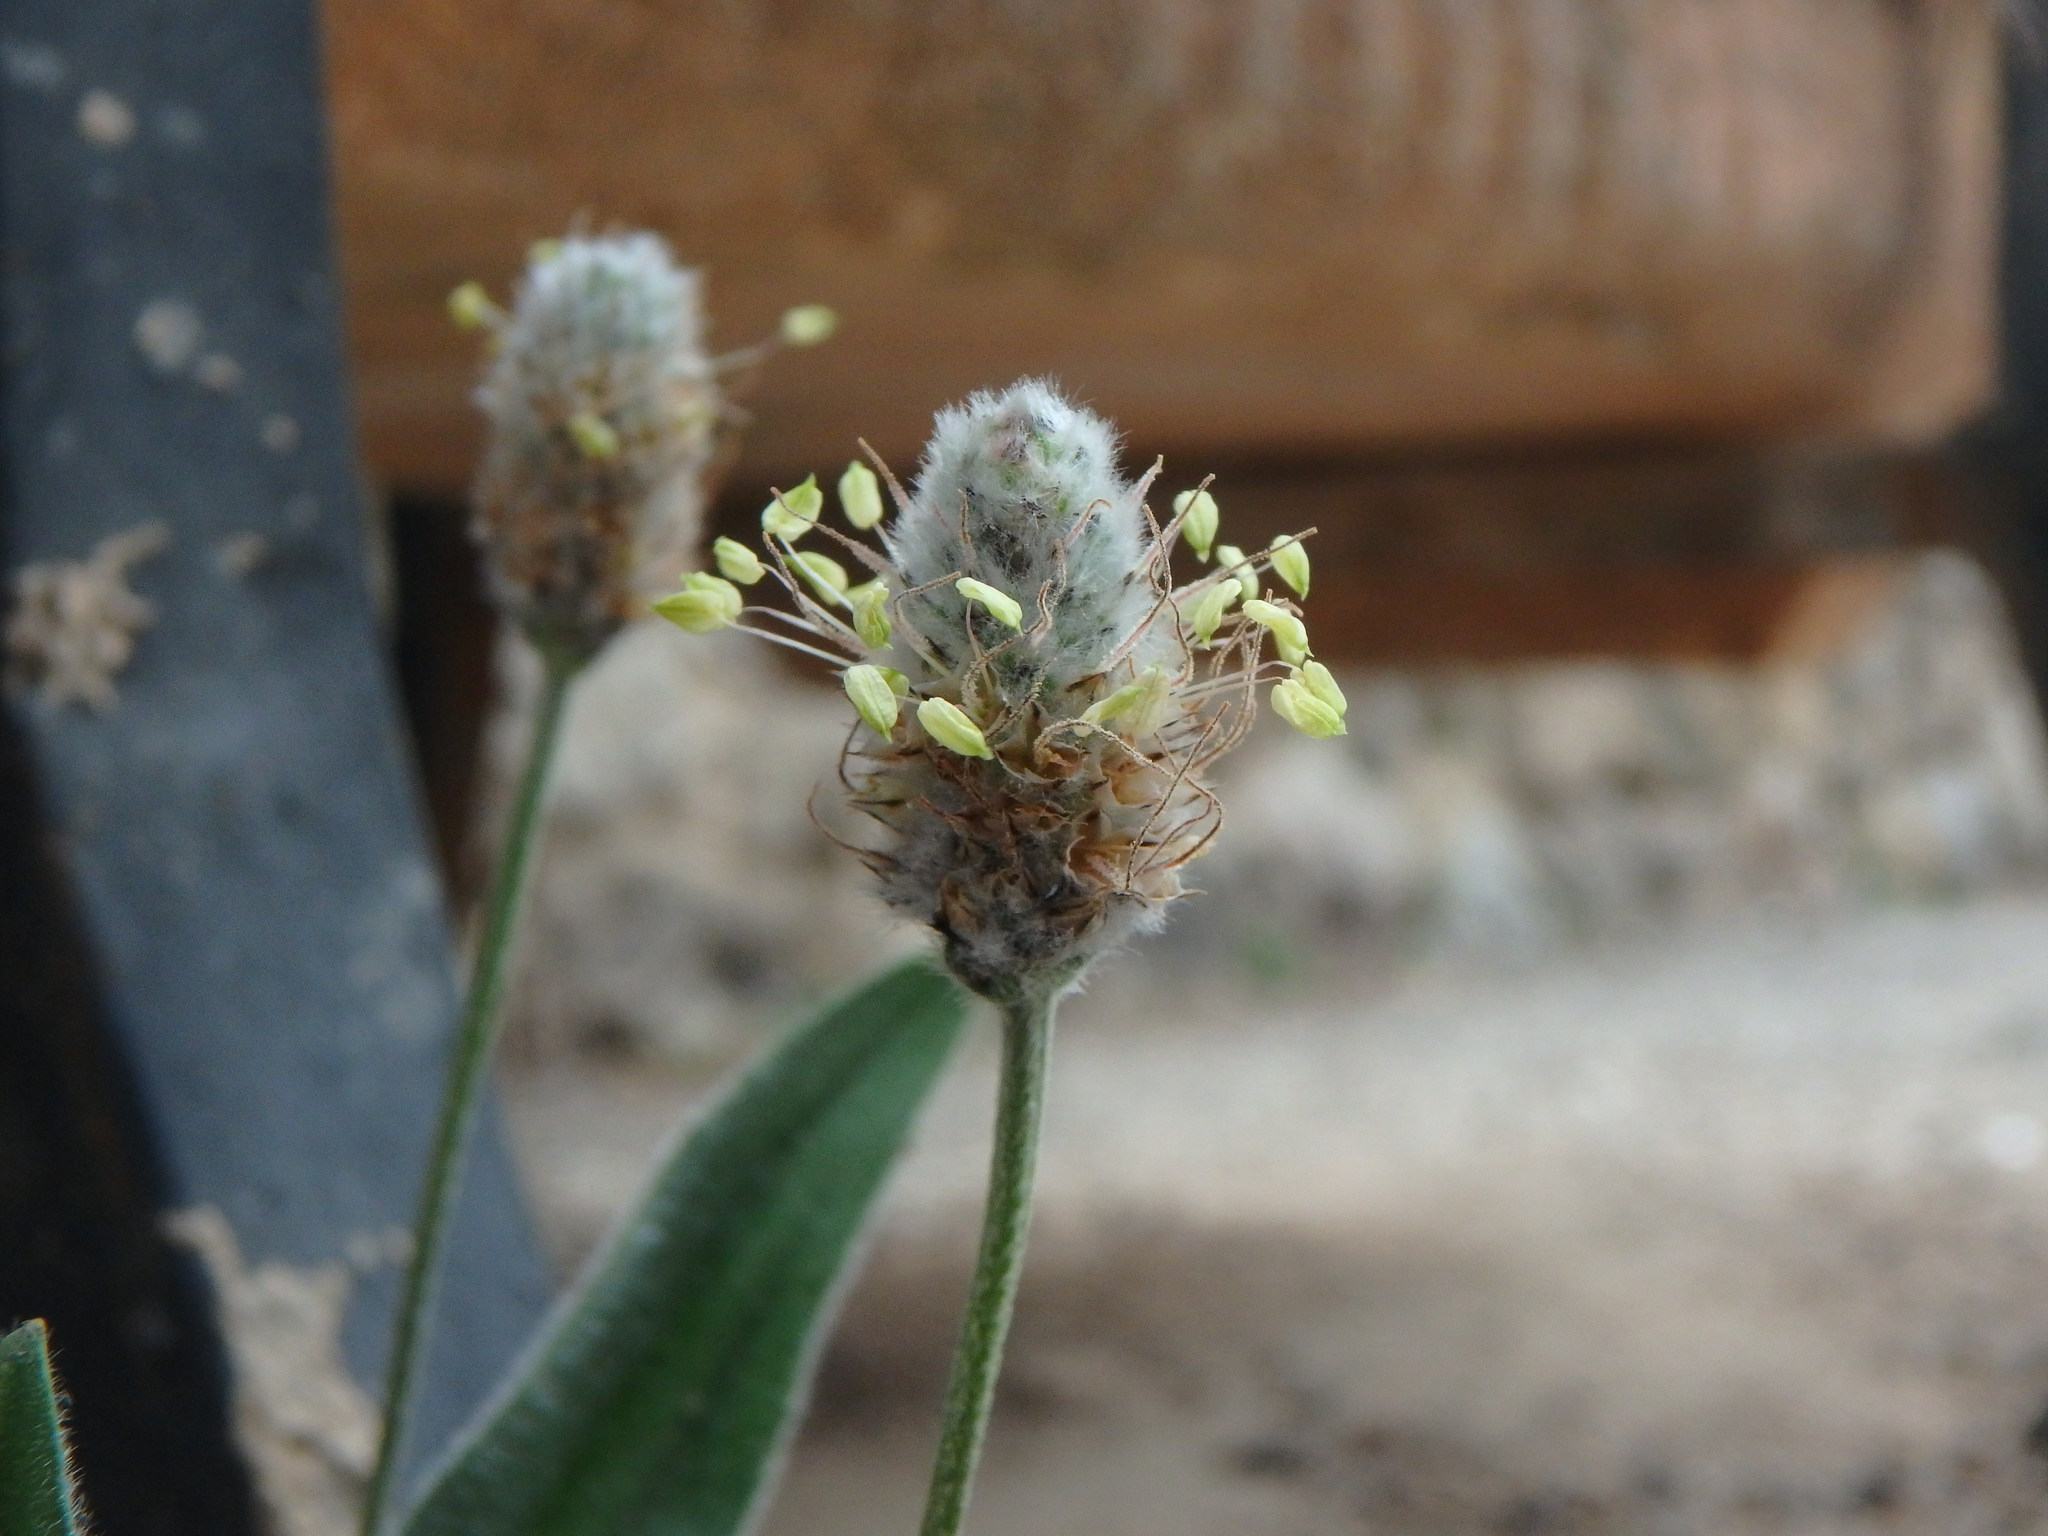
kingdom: Plantae
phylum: Tracheophyta
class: Magnoliopsida
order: Lamiales
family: Plantaginaceae
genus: Plantago
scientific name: Plantago lagopus
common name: Hare-foot plantain
